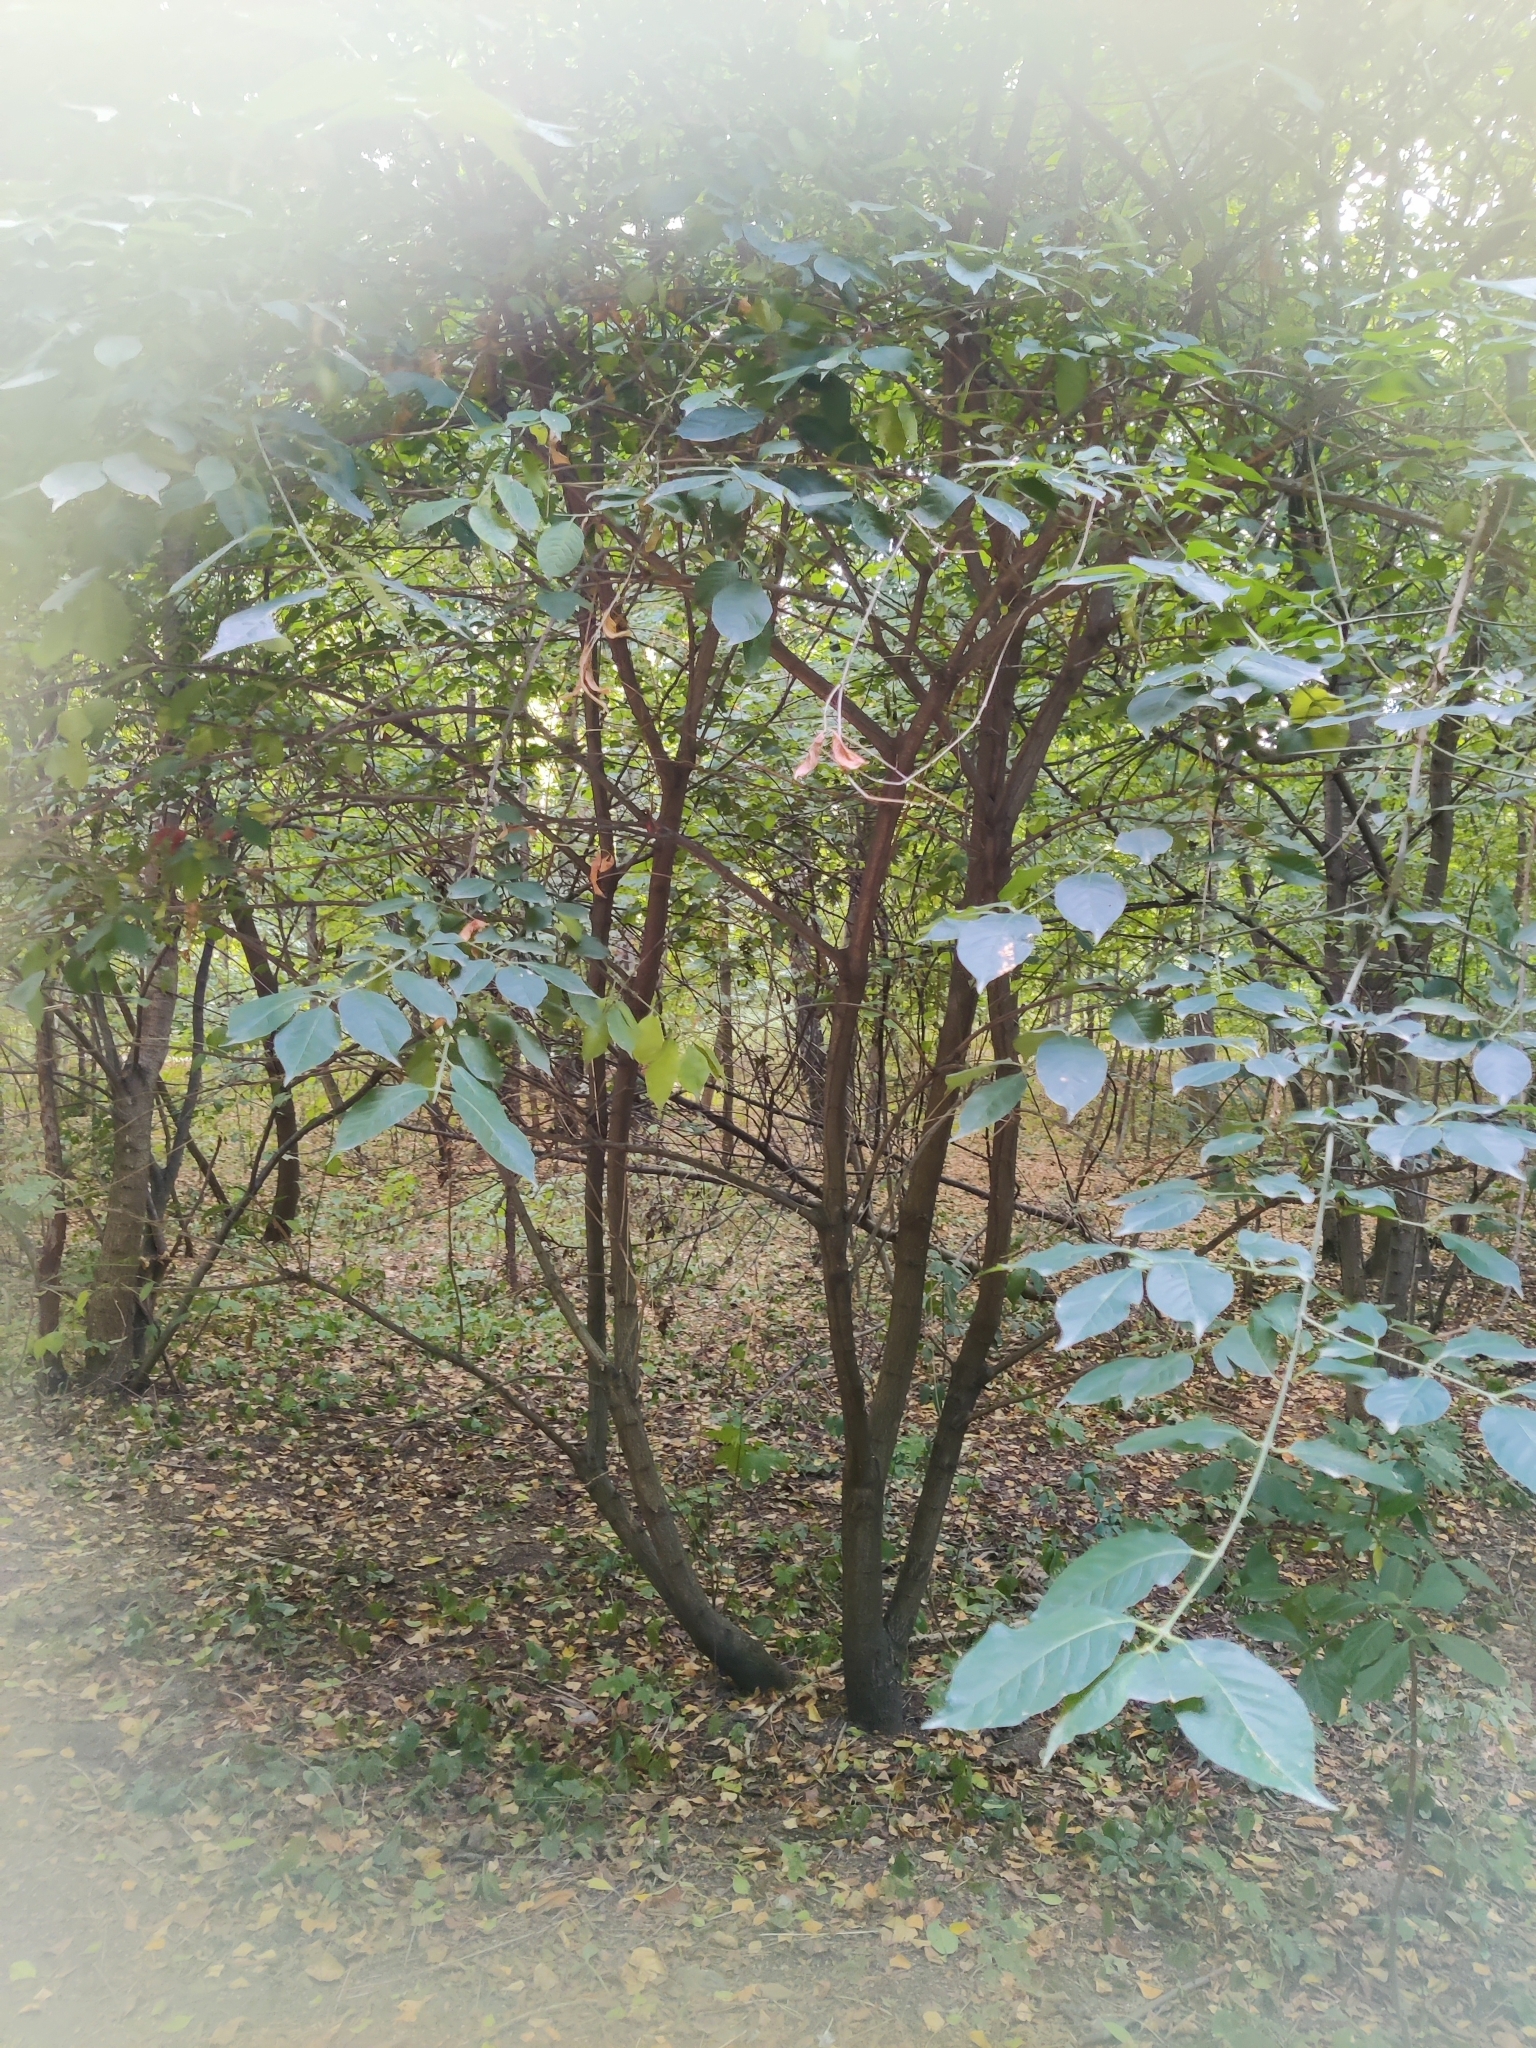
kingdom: Plantae
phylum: Tracheophyta
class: Magnoliopsida
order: Celastrales
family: Celastraceae
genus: Euonymus
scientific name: Euonymus europaeus
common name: Spindle
